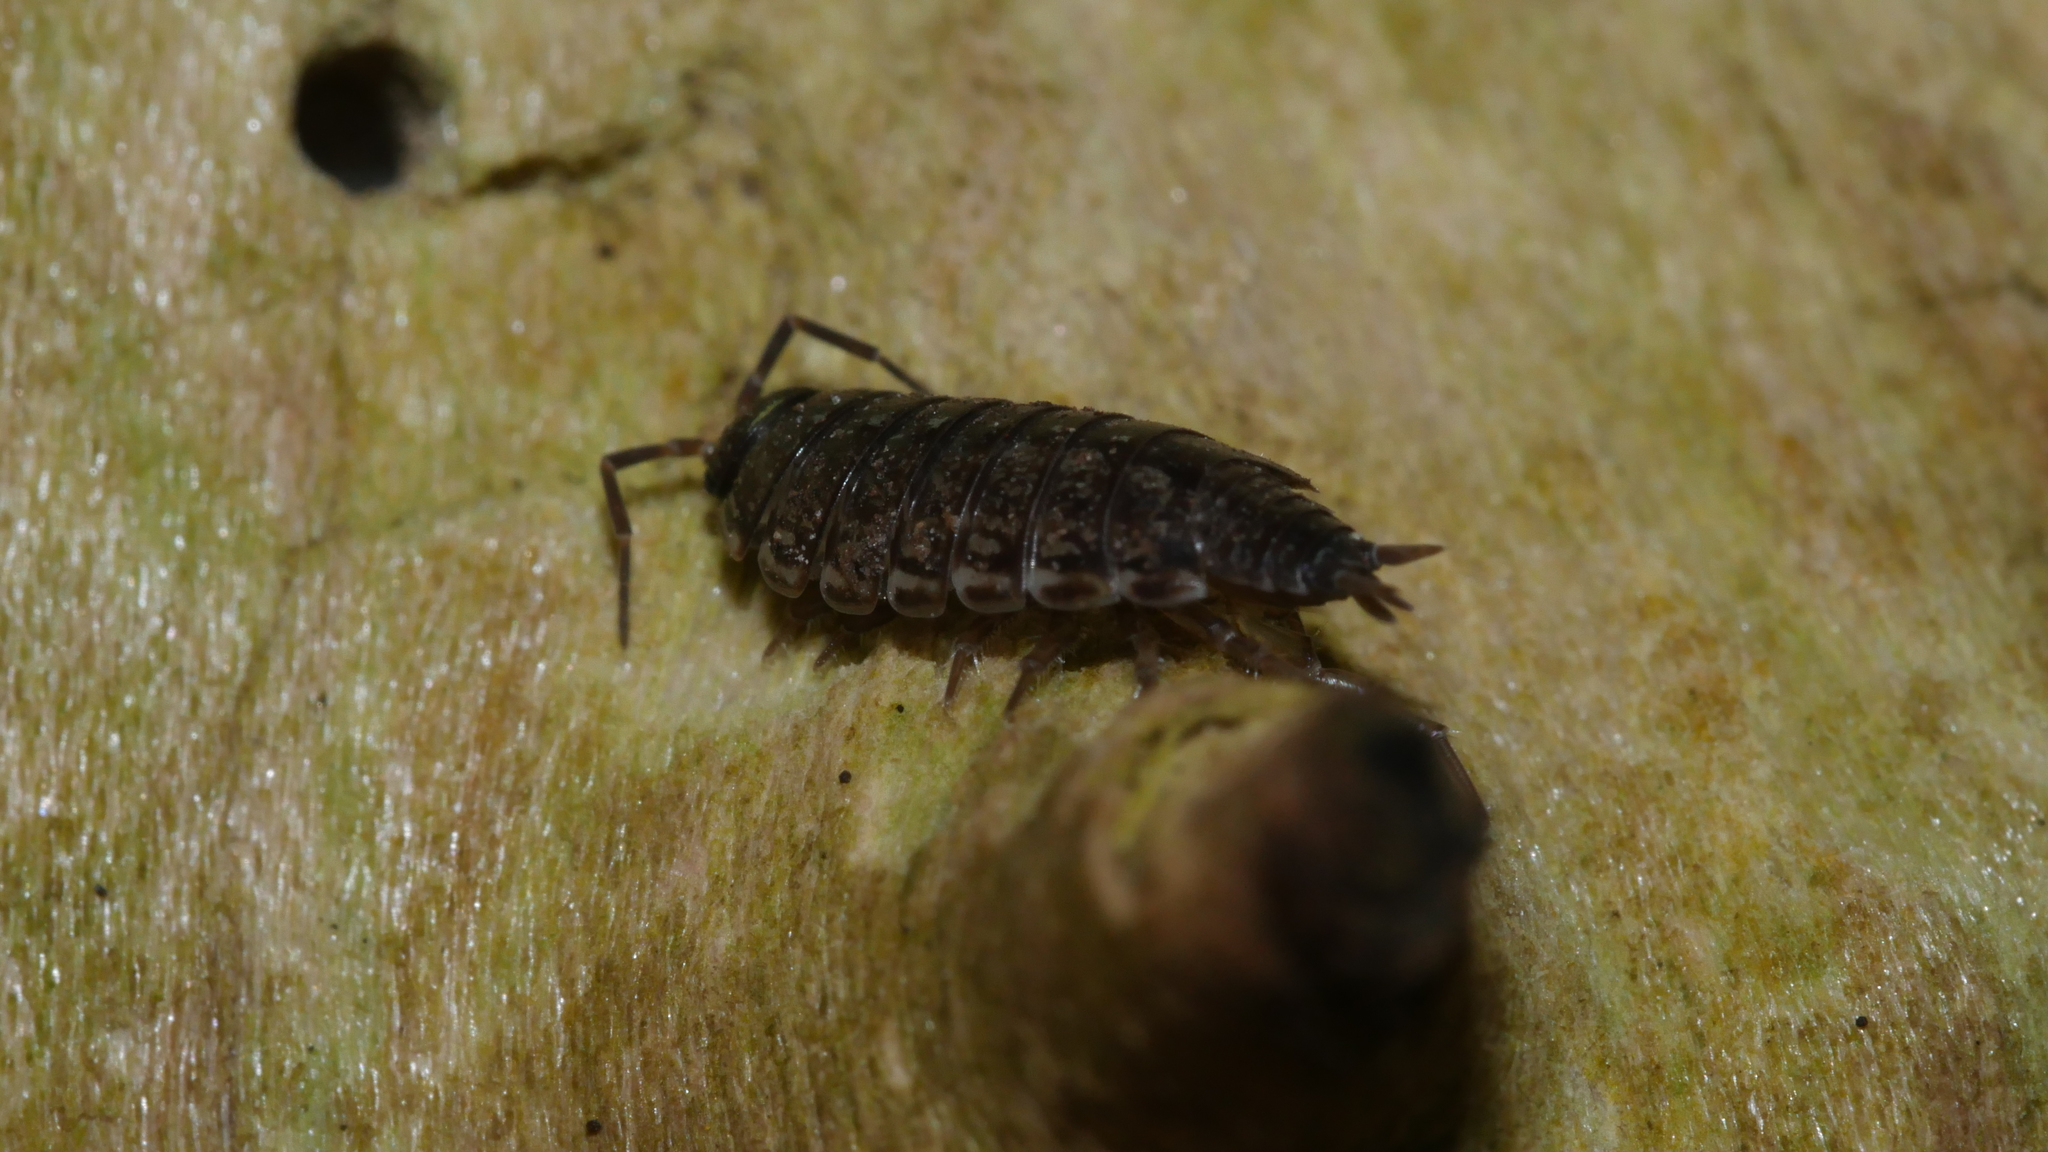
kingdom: Animalia
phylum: Arthropoda
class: Malacostraca
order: Isopoda
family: Philosciidae
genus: Philoscia
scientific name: Philoscia muscorum
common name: Common striped woodlouse
